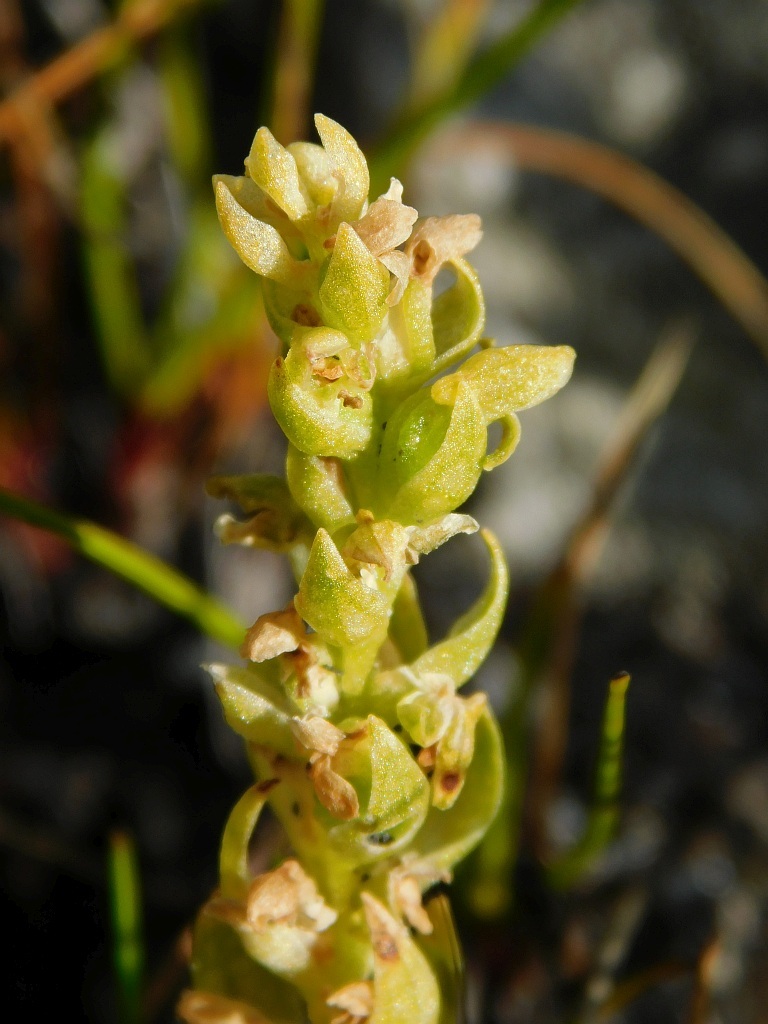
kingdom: Plantae
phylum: Tracheophyta
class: Liliopsida
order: Asparagales
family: Orchidaceae
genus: Disa
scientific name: Disa cylindrica
